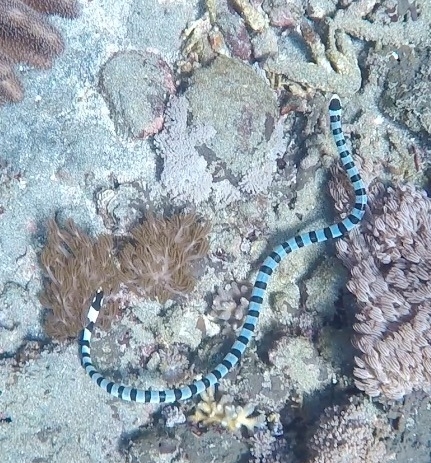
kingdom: Animalia
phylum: Chordata
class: Squamata
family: Elapidae
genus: Laticauda
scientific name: Laticauda colubrina
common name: Yellow-lipped sea krait
